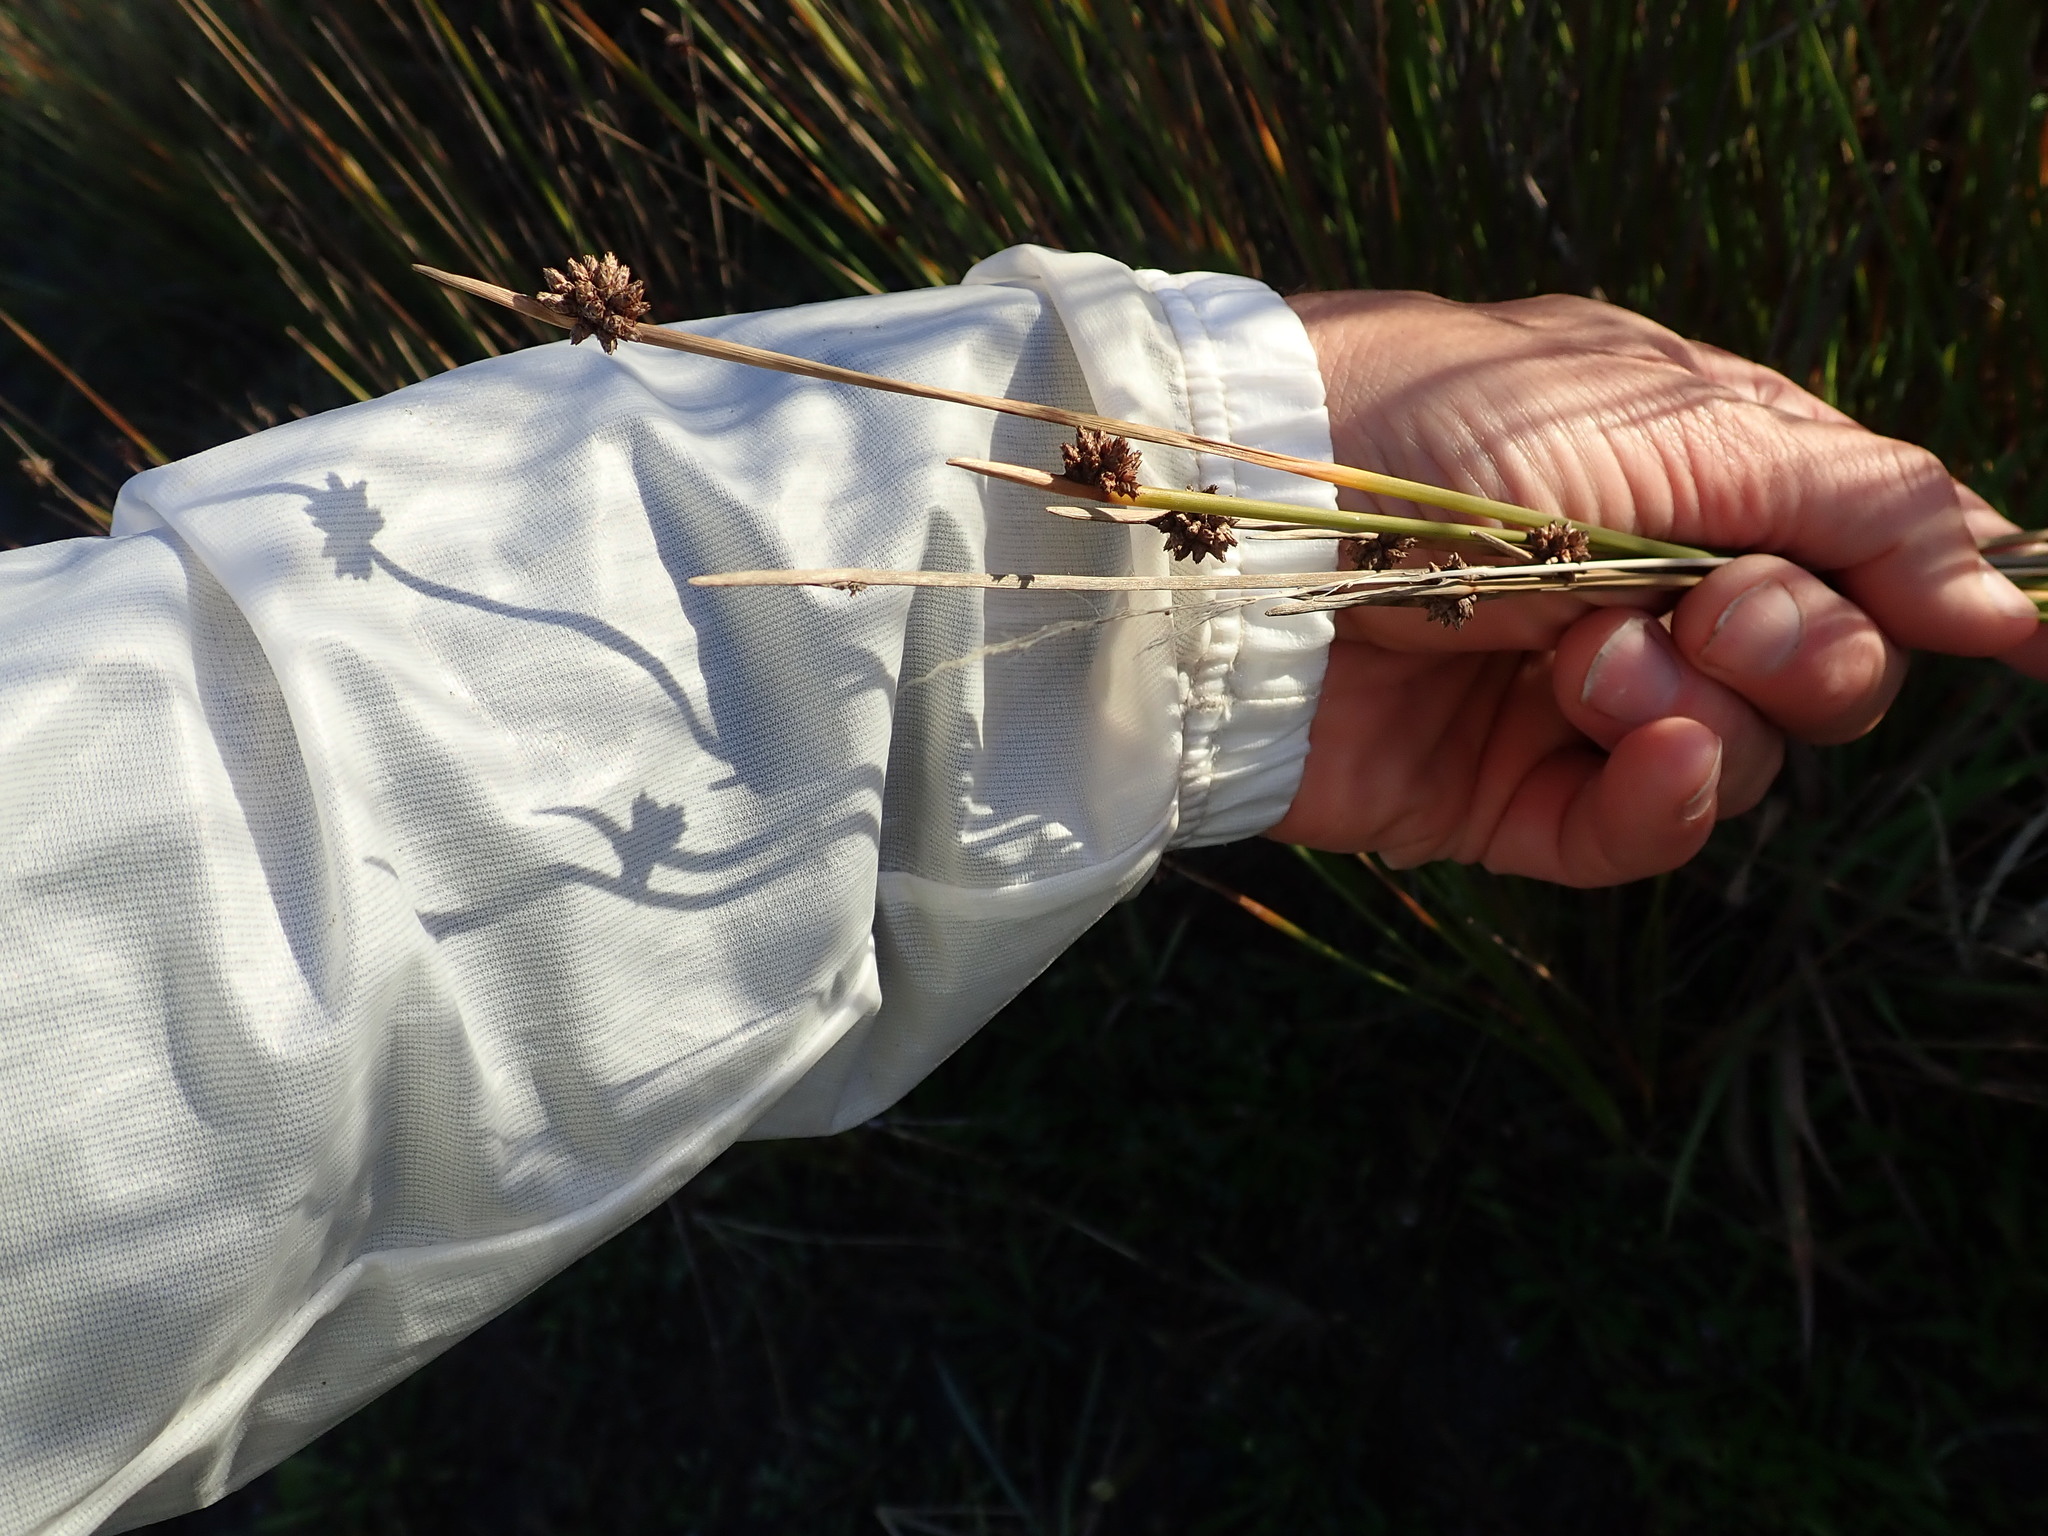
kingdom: Plantae
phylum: Tracheophyta
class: Liliopsida
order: Poales
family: Cyperaceae
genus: Ficinia
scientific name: Ficinia nodosa
